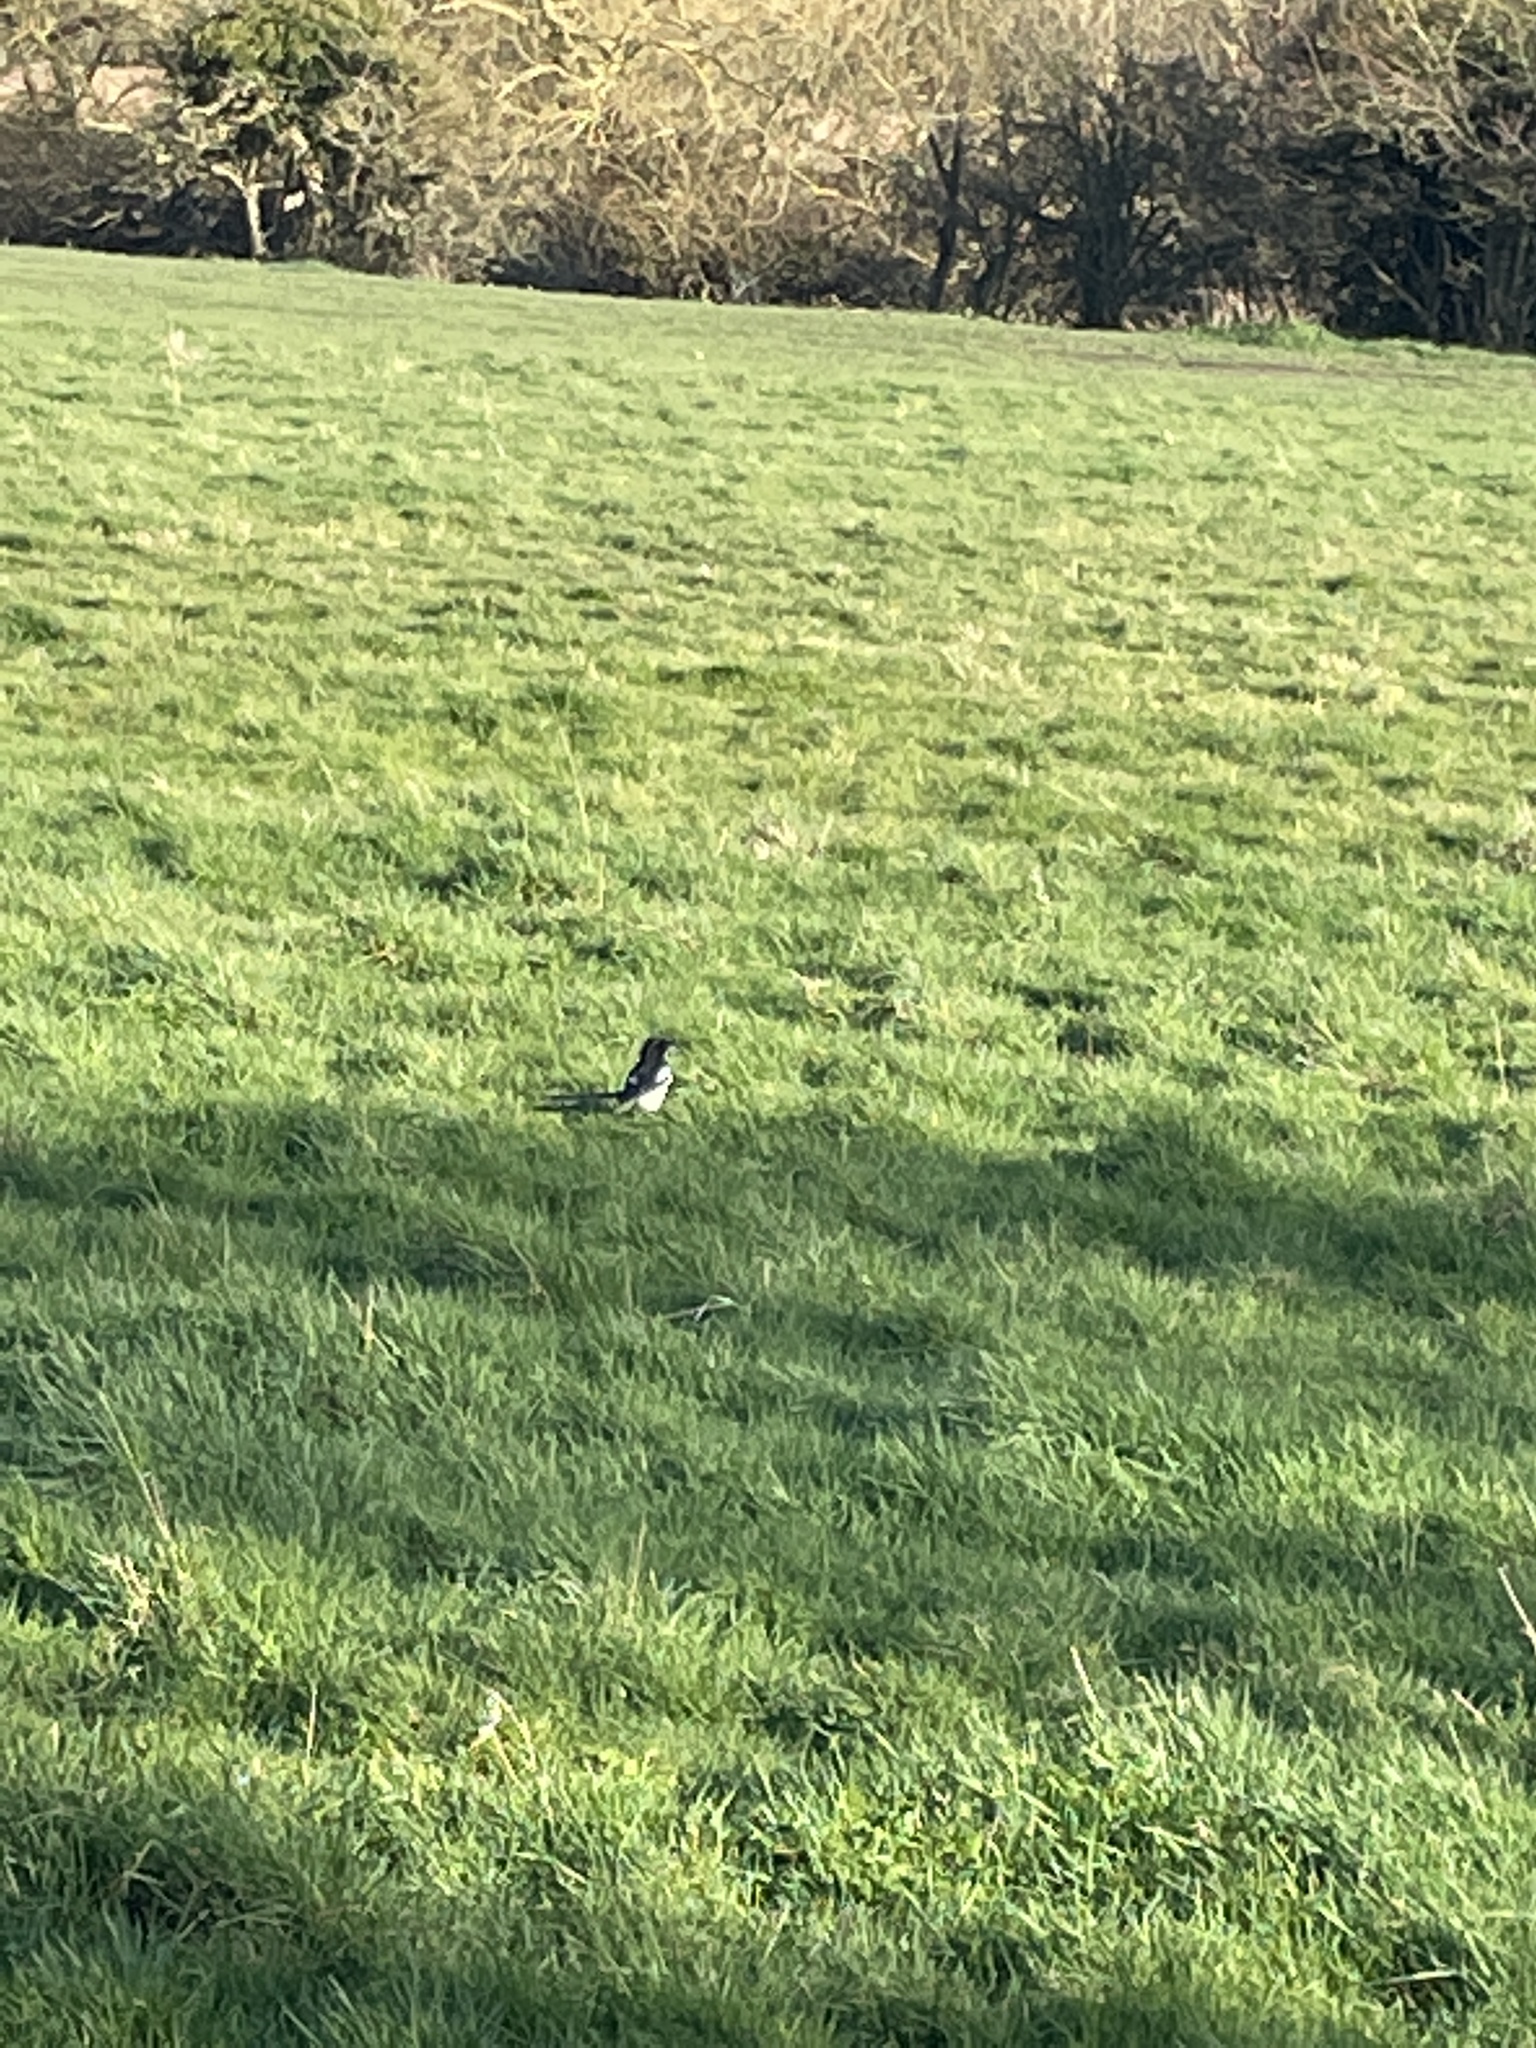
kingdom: Animalia
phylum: Chordata
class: Aves
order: Passeriformes
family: Corvidae
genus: Pica
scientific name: Pica pica
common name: Eurasian magpie
